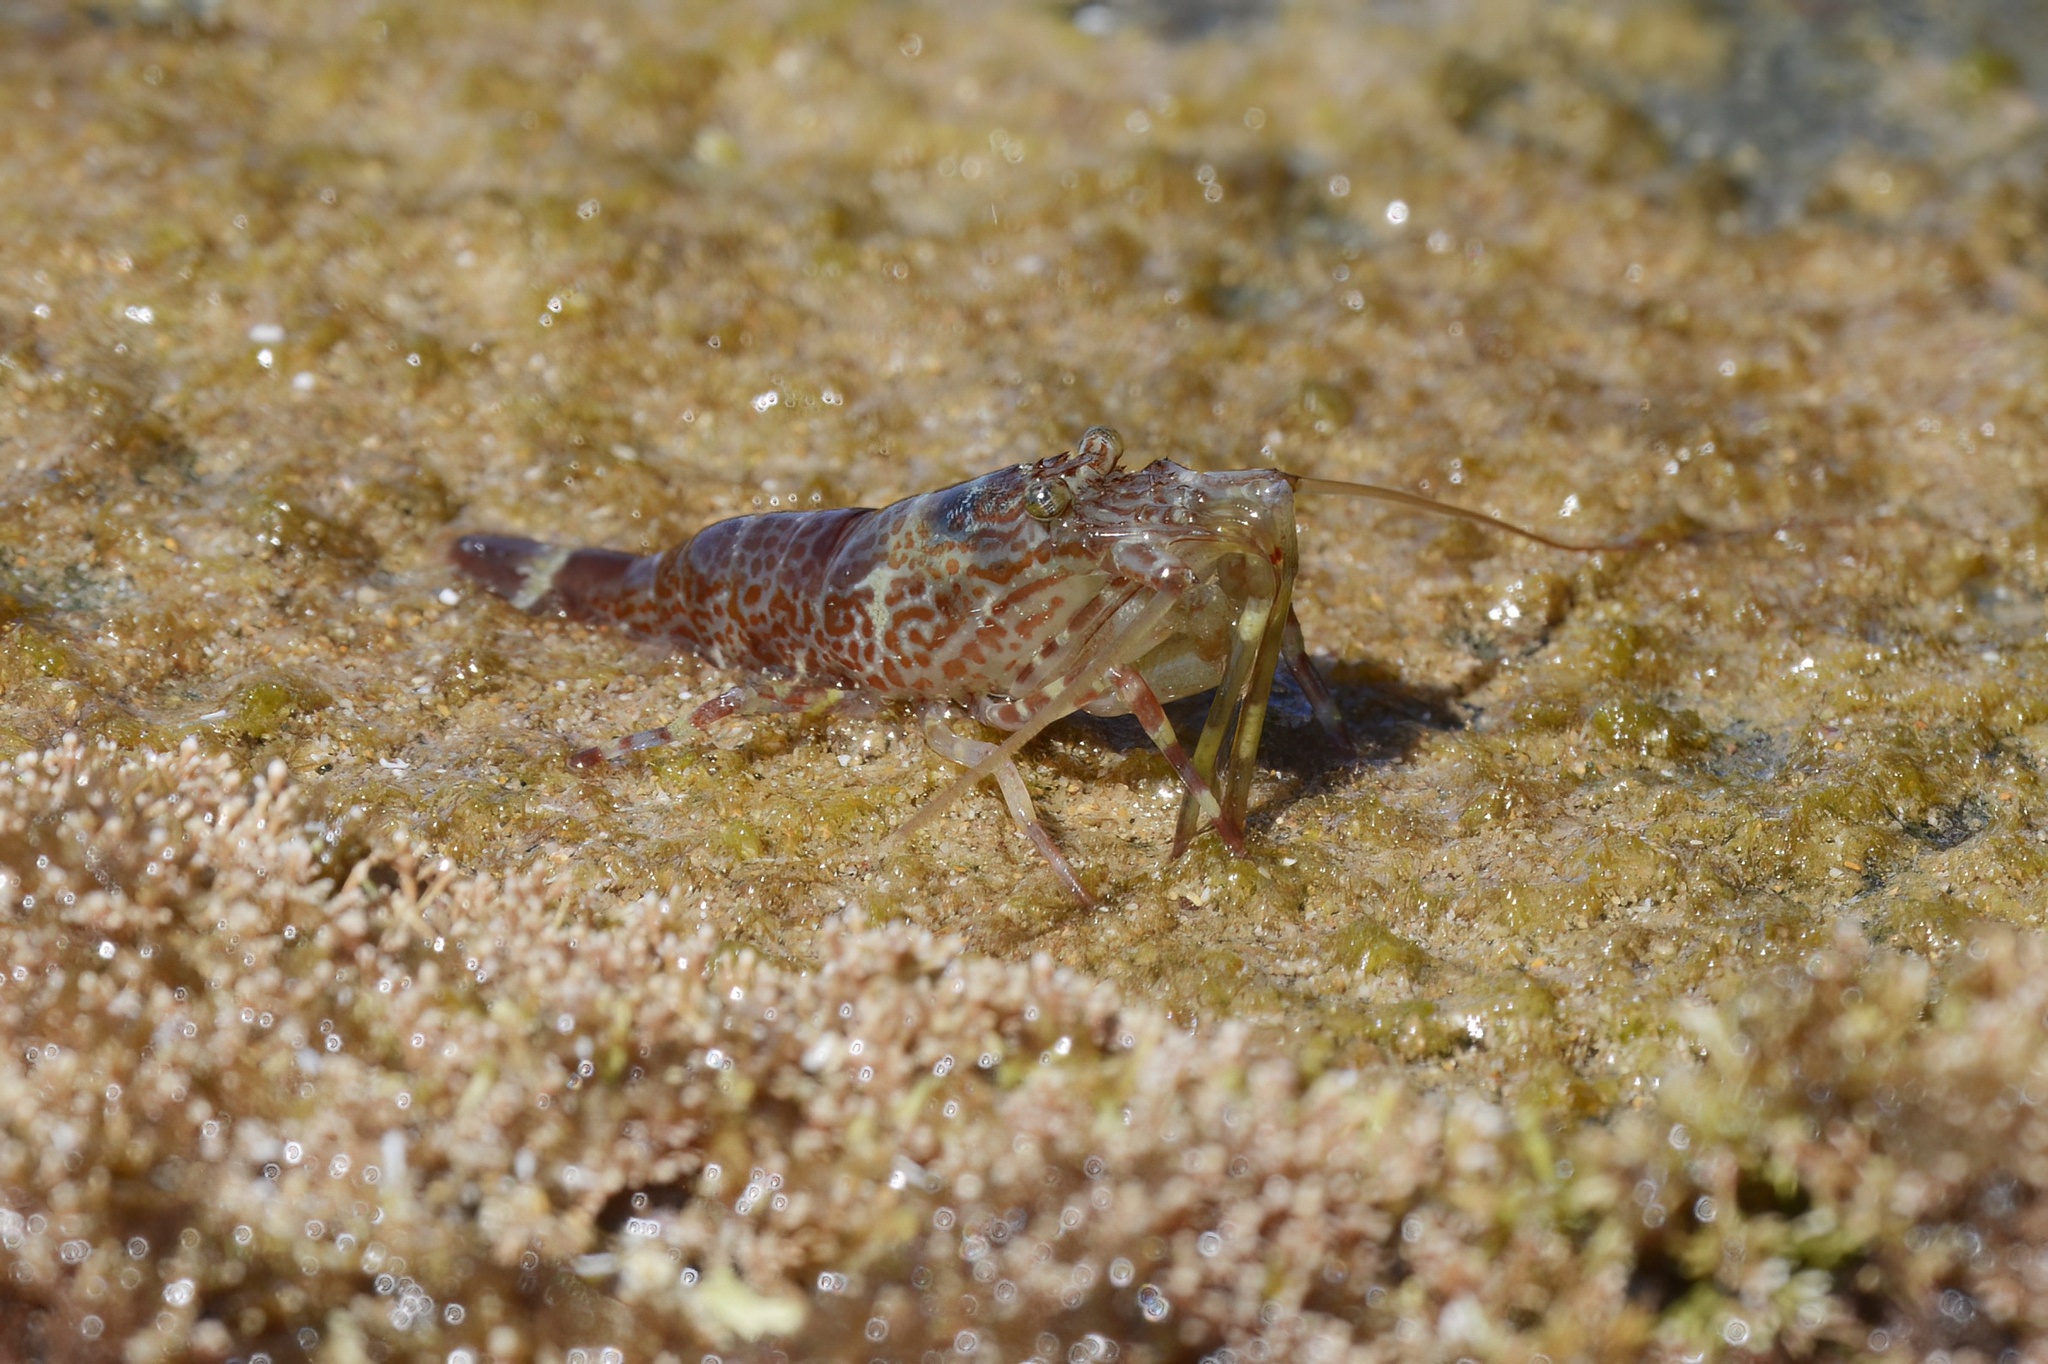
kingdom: Animalia
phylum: Arthropoda
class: Malacostraca
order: Decapoda
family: Hippolytidae
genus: Alope
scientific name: Alope orientalis
